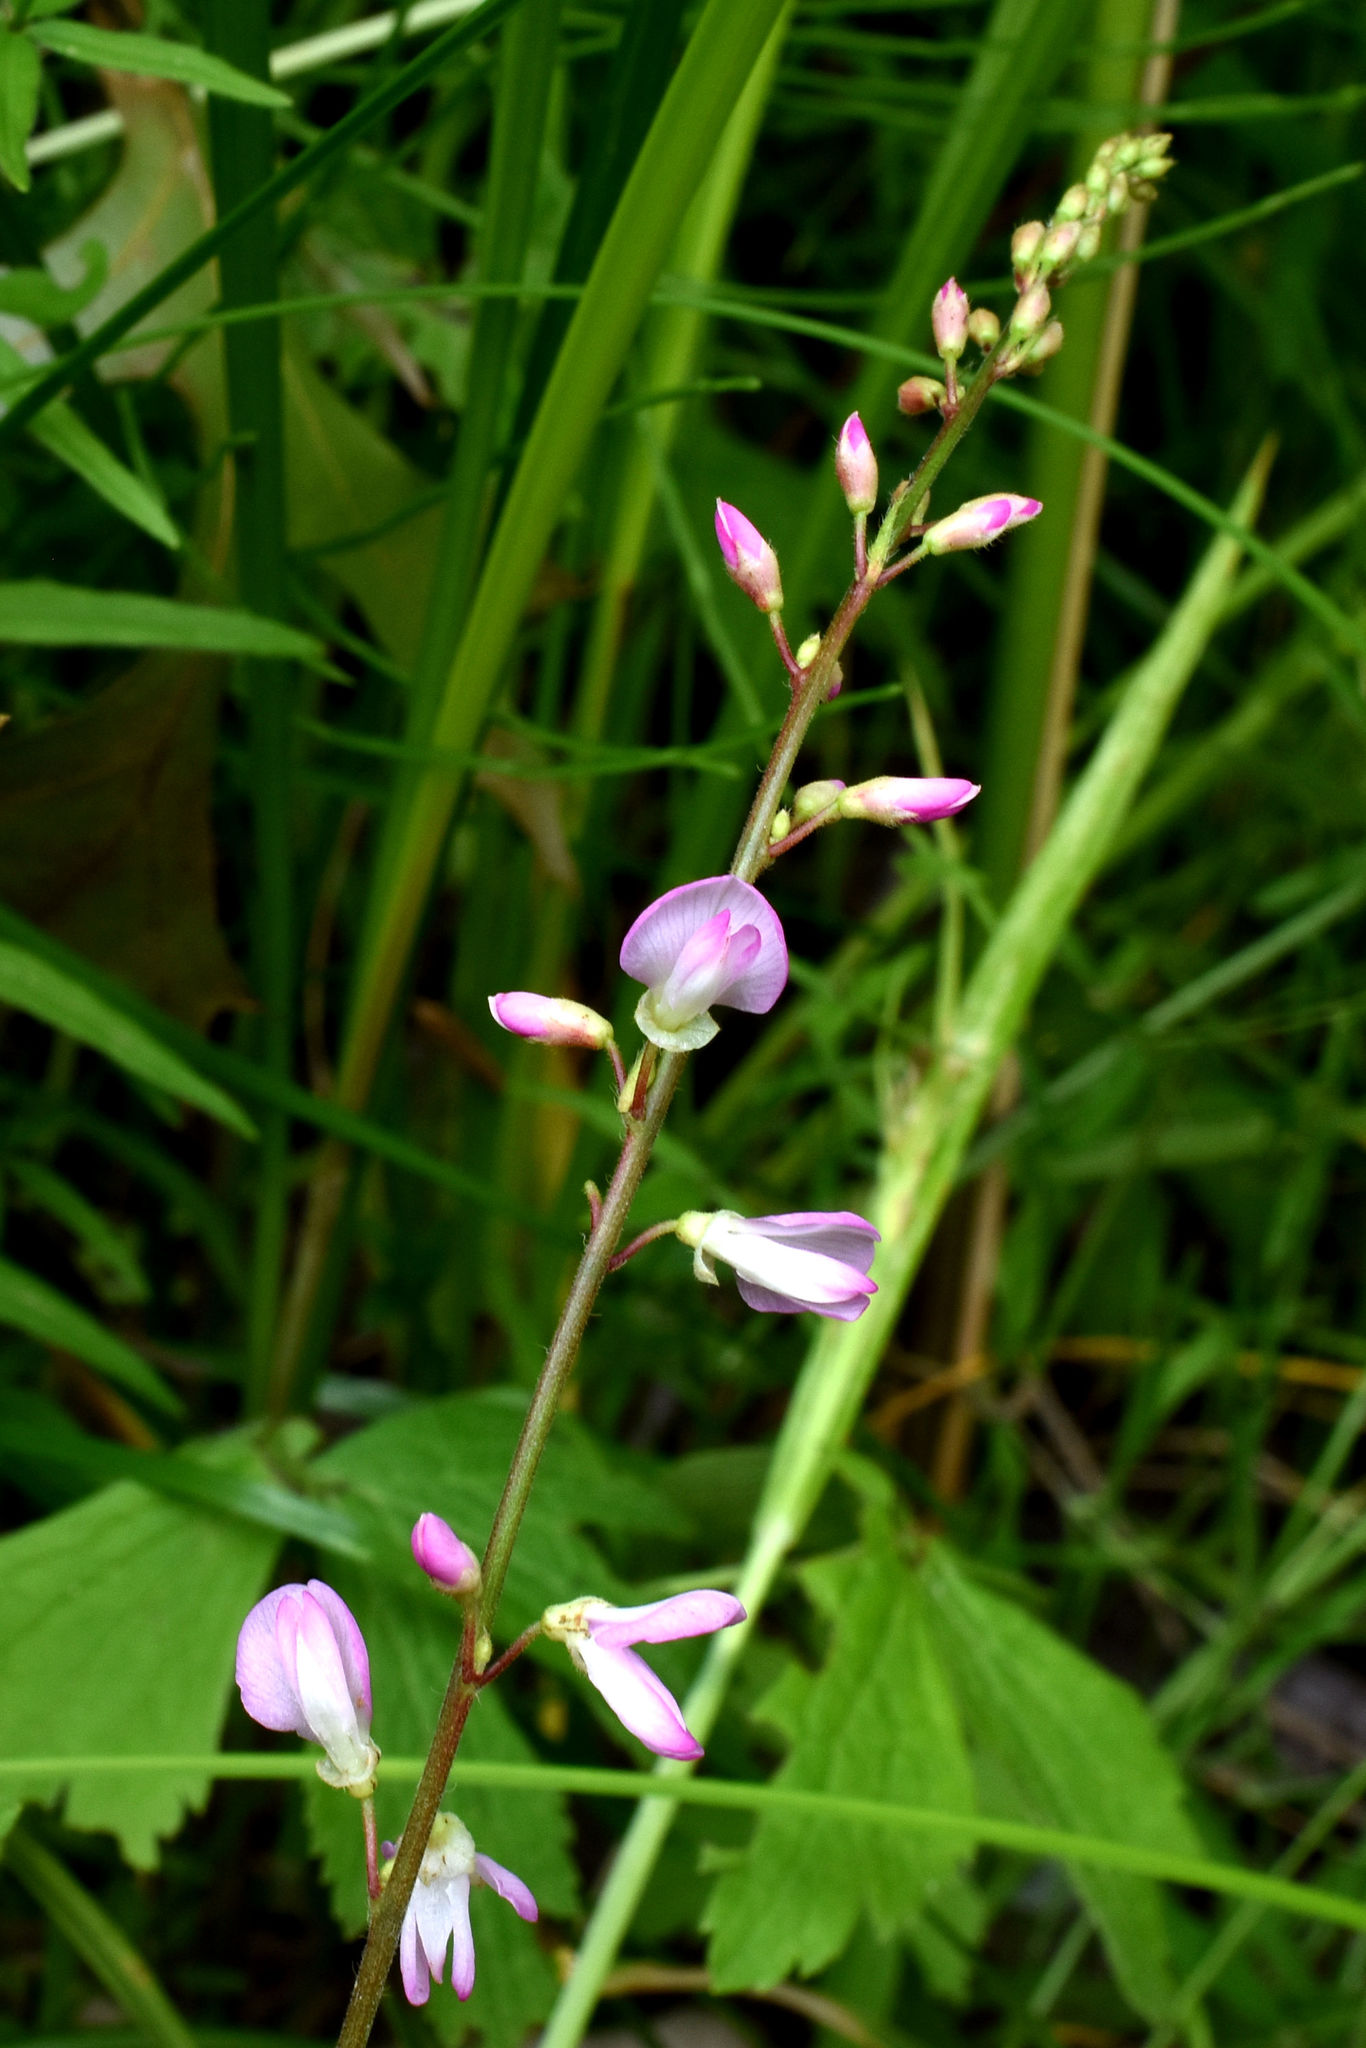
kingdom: Plantae
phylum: Tracheophyta
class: Magnoliopsida
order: Fabales
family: Fabaceae
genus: Hylodesmum
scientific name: Hylodesmum glutinosum
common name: Clustered-leaved tick-trefoil
